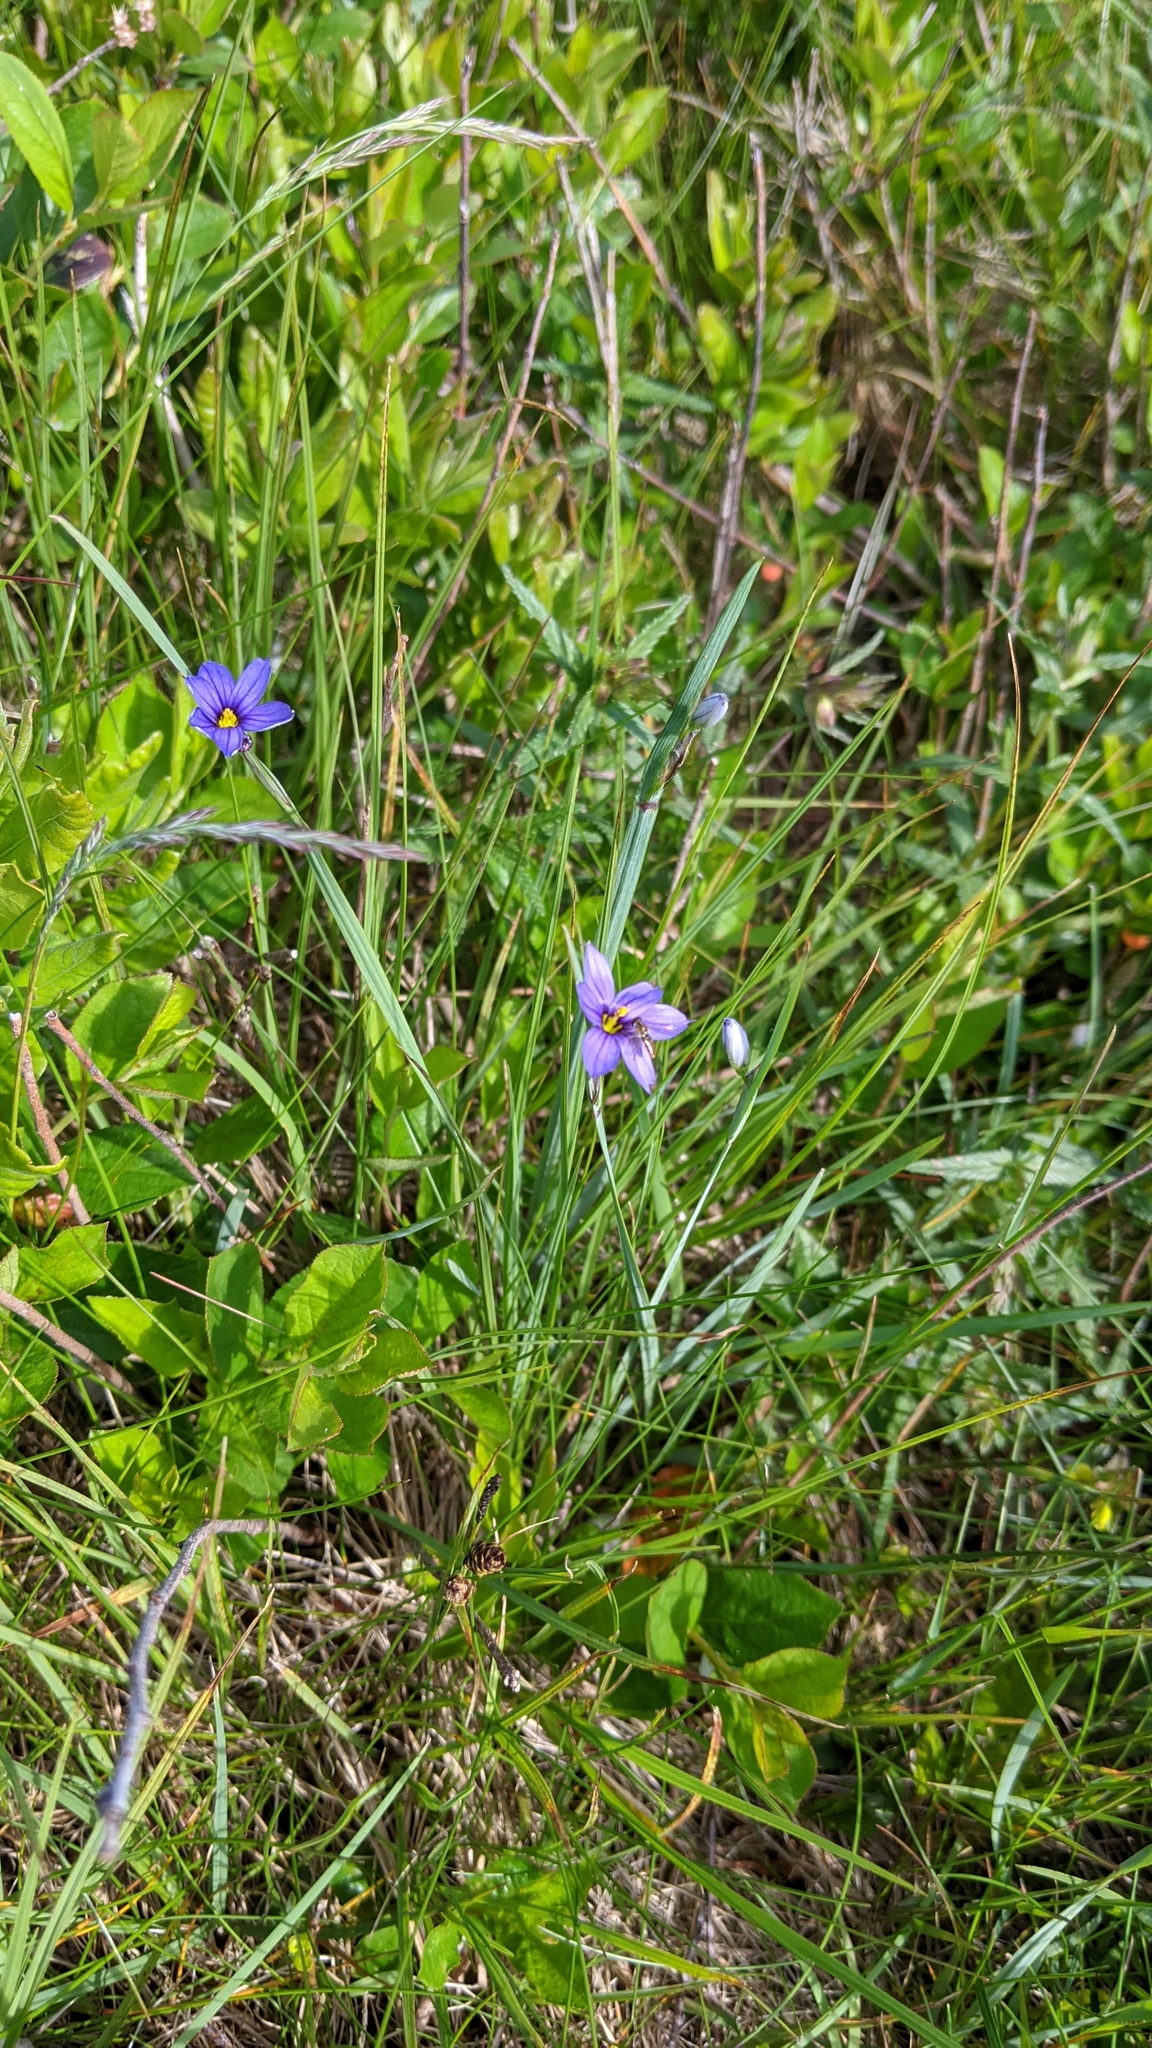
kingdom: Plantae
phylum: Tracheophyta
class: Liliopsida
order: Asparagales
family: Iridaceae
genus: Sisyrinchium
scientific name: Sisyrinchium montanum
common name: American blue-eyed-grass
